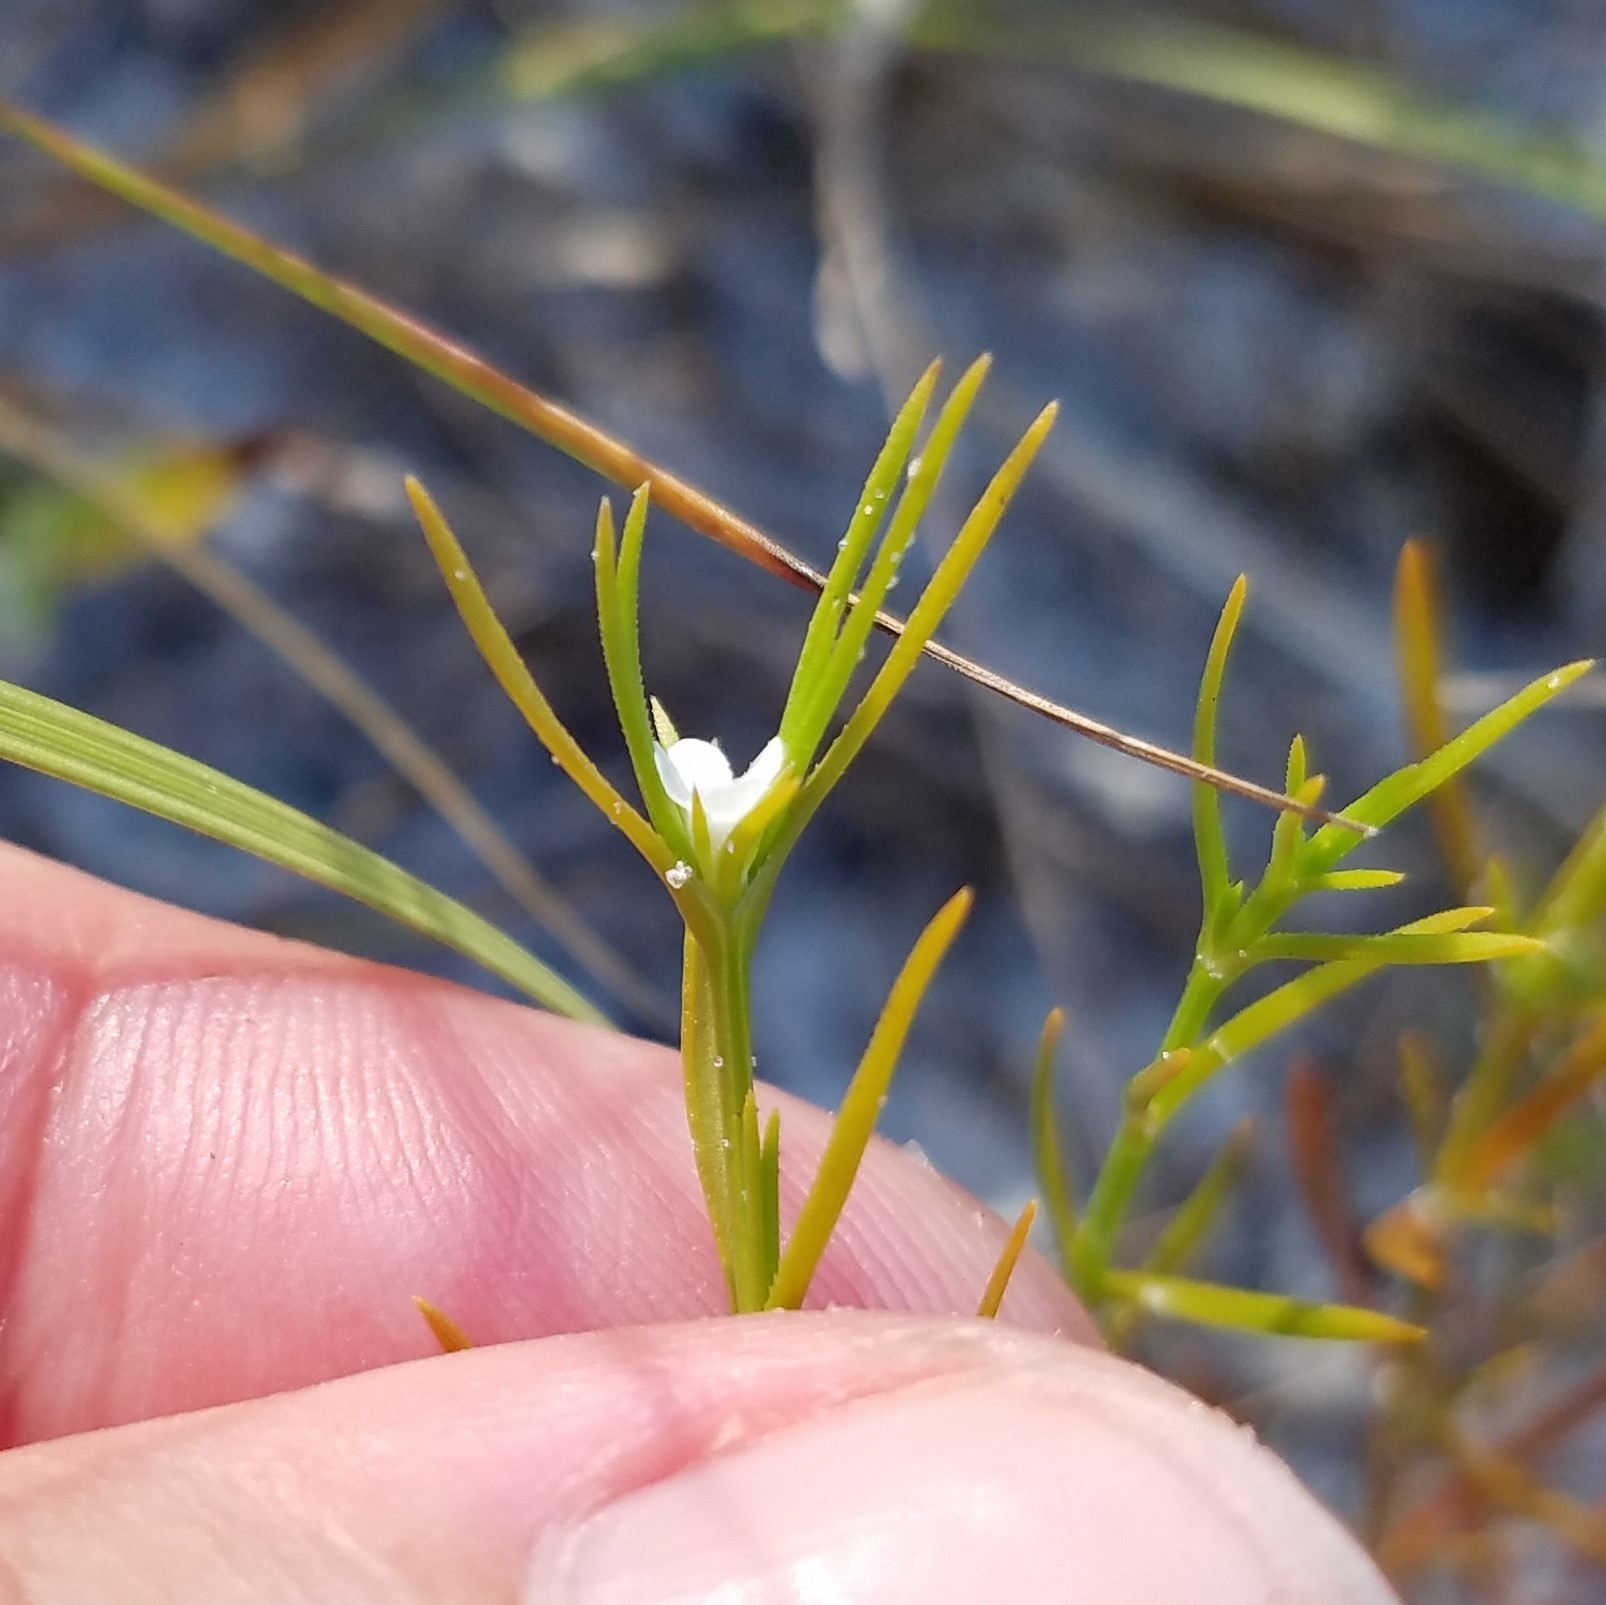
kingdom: Plantae
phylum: Tracheophyta
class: Magnoliopsida
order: Lamiales
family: Tetrachondraceae
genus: Polypremum
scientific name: Polypremum procumbens
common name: Juniper-leaf
